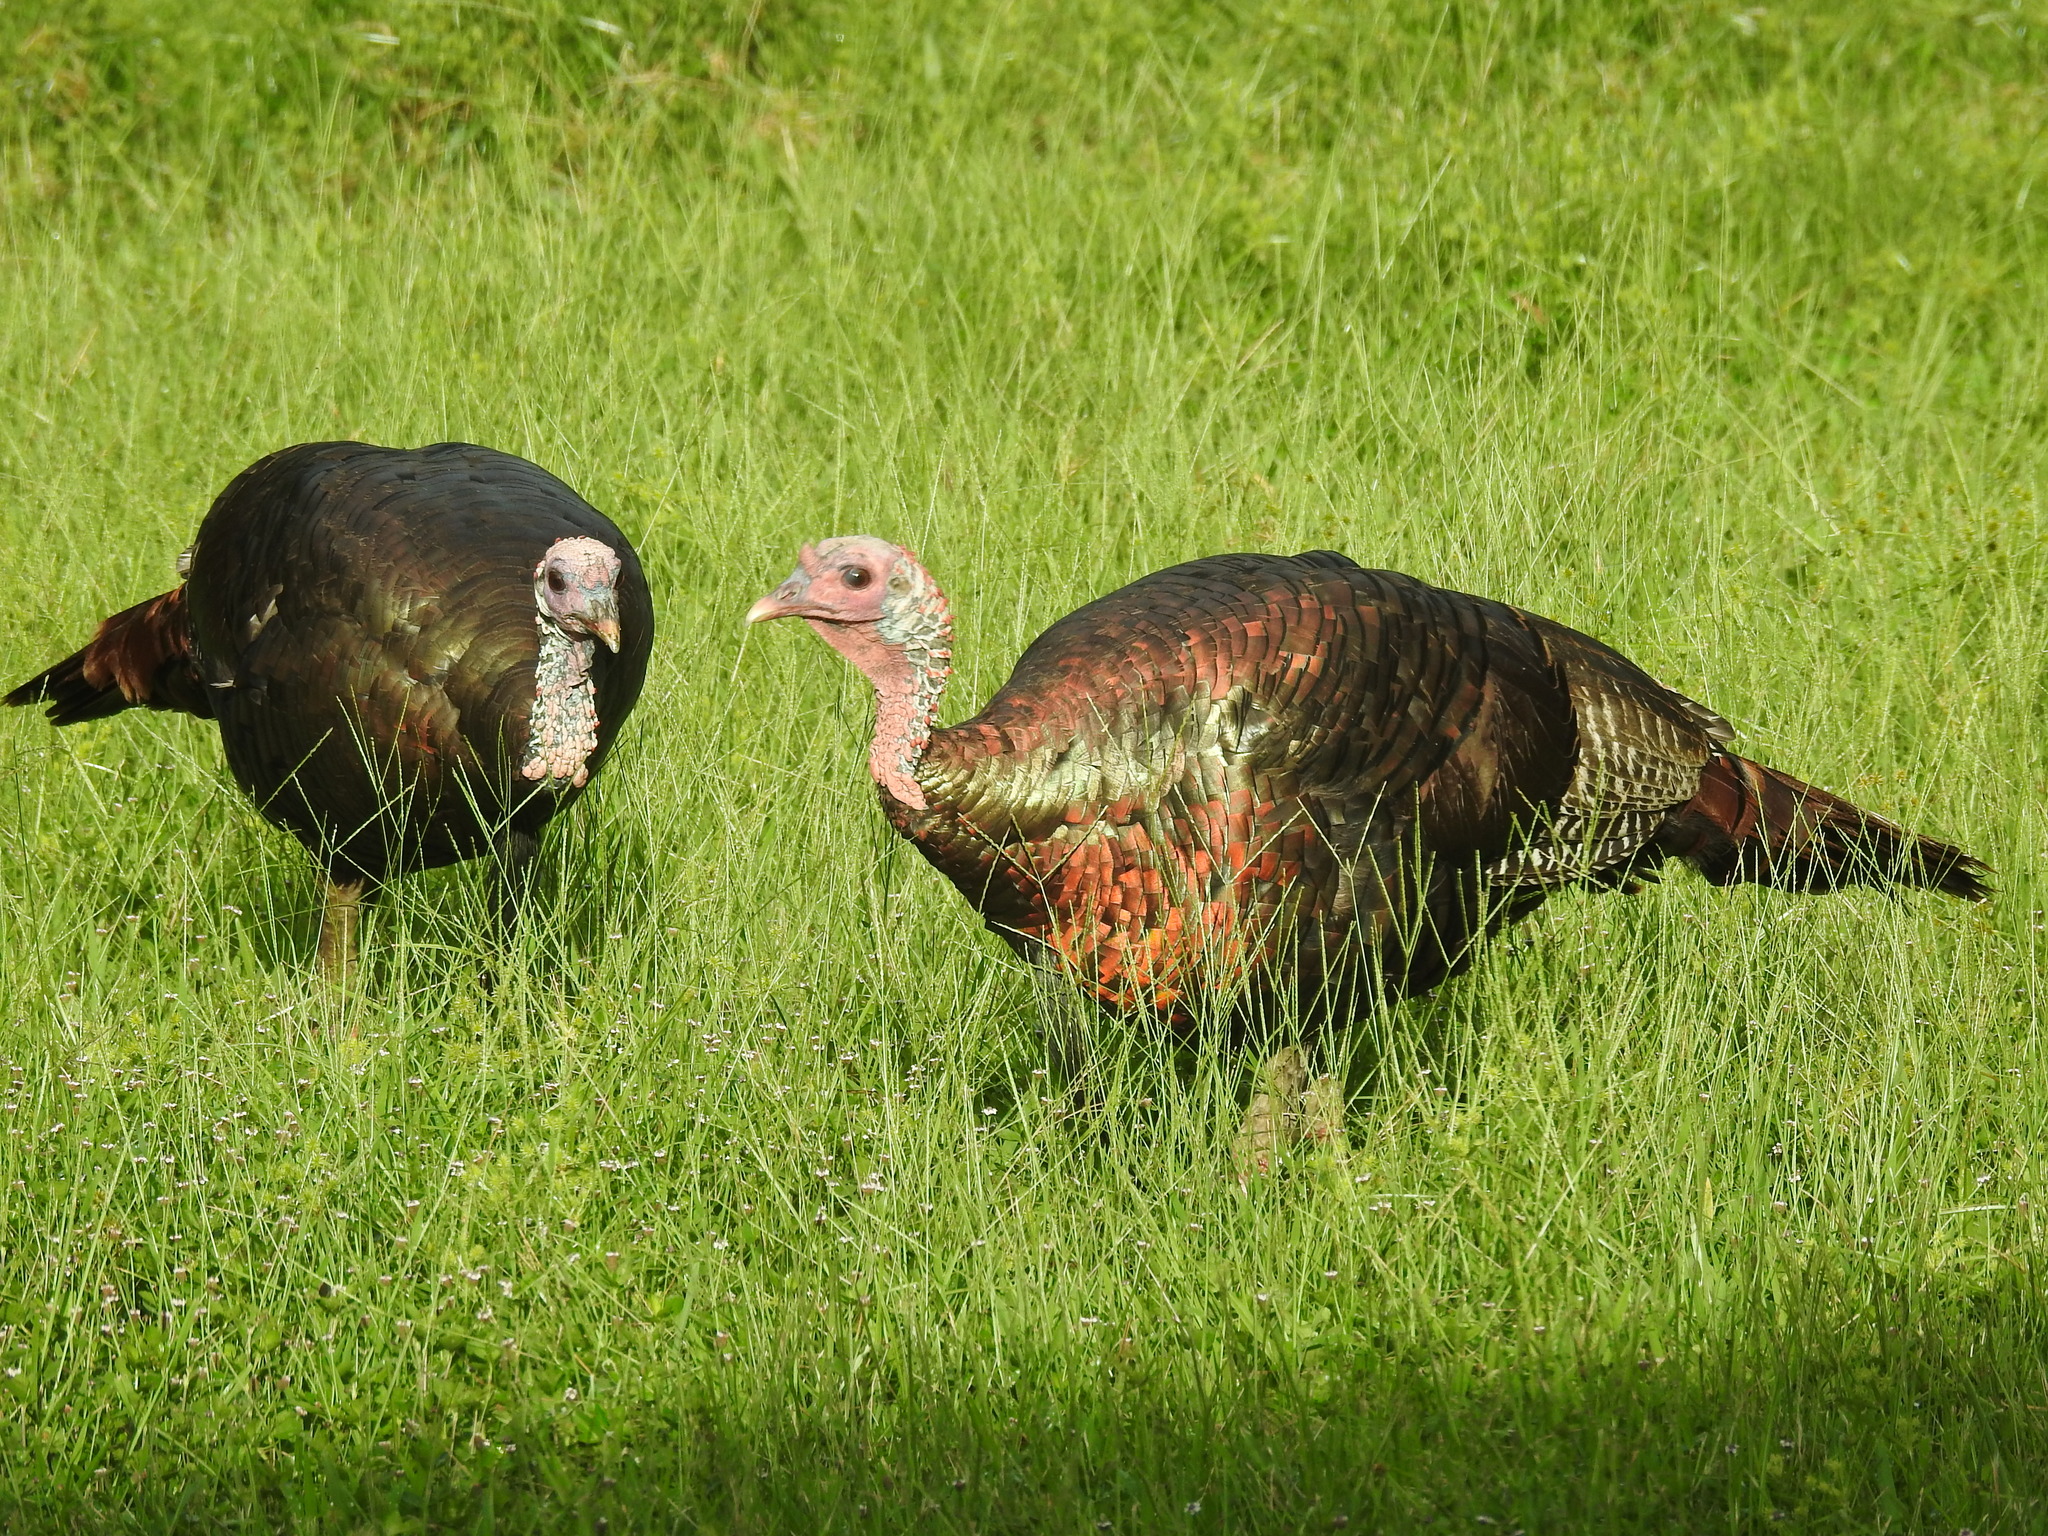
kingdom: Animalia
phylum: Chordata
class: Aves
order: Galliformes
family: Phasianidae
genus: Meleagris
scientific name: Meleagris gallopavo
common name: Wild turkey
